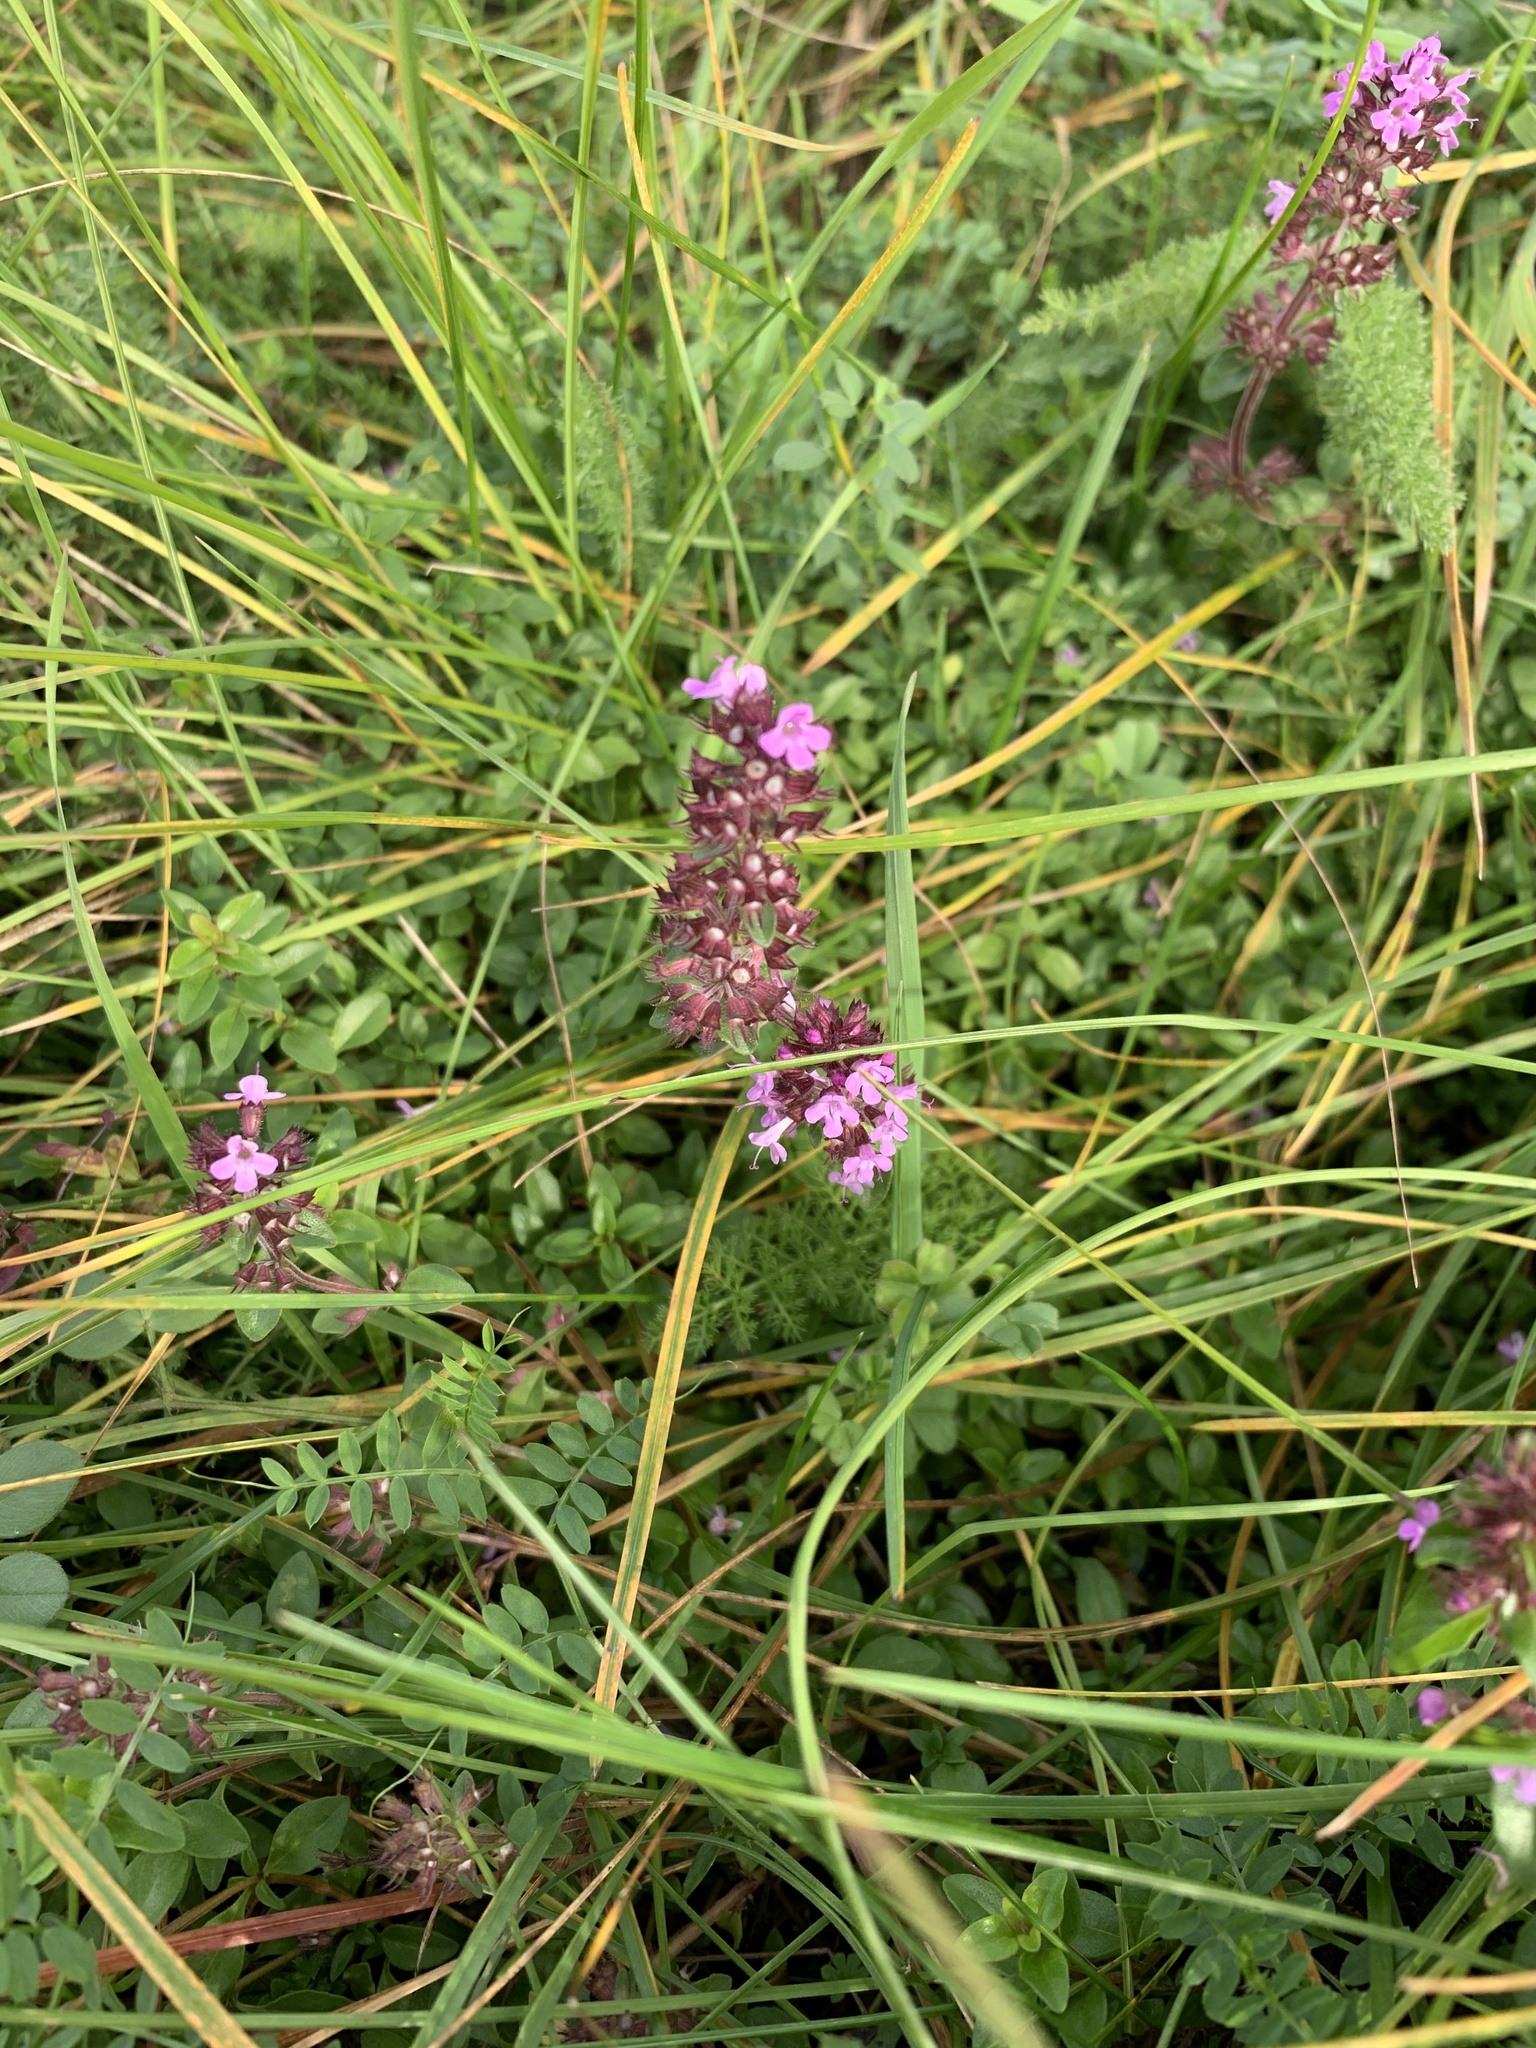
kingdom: Plantae
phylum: Tracheophyta
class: Magnoliopsida
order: Lamiales
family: Lamiaceae
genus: Thymus
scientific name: Thymus pulegioides
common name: Large thyme
